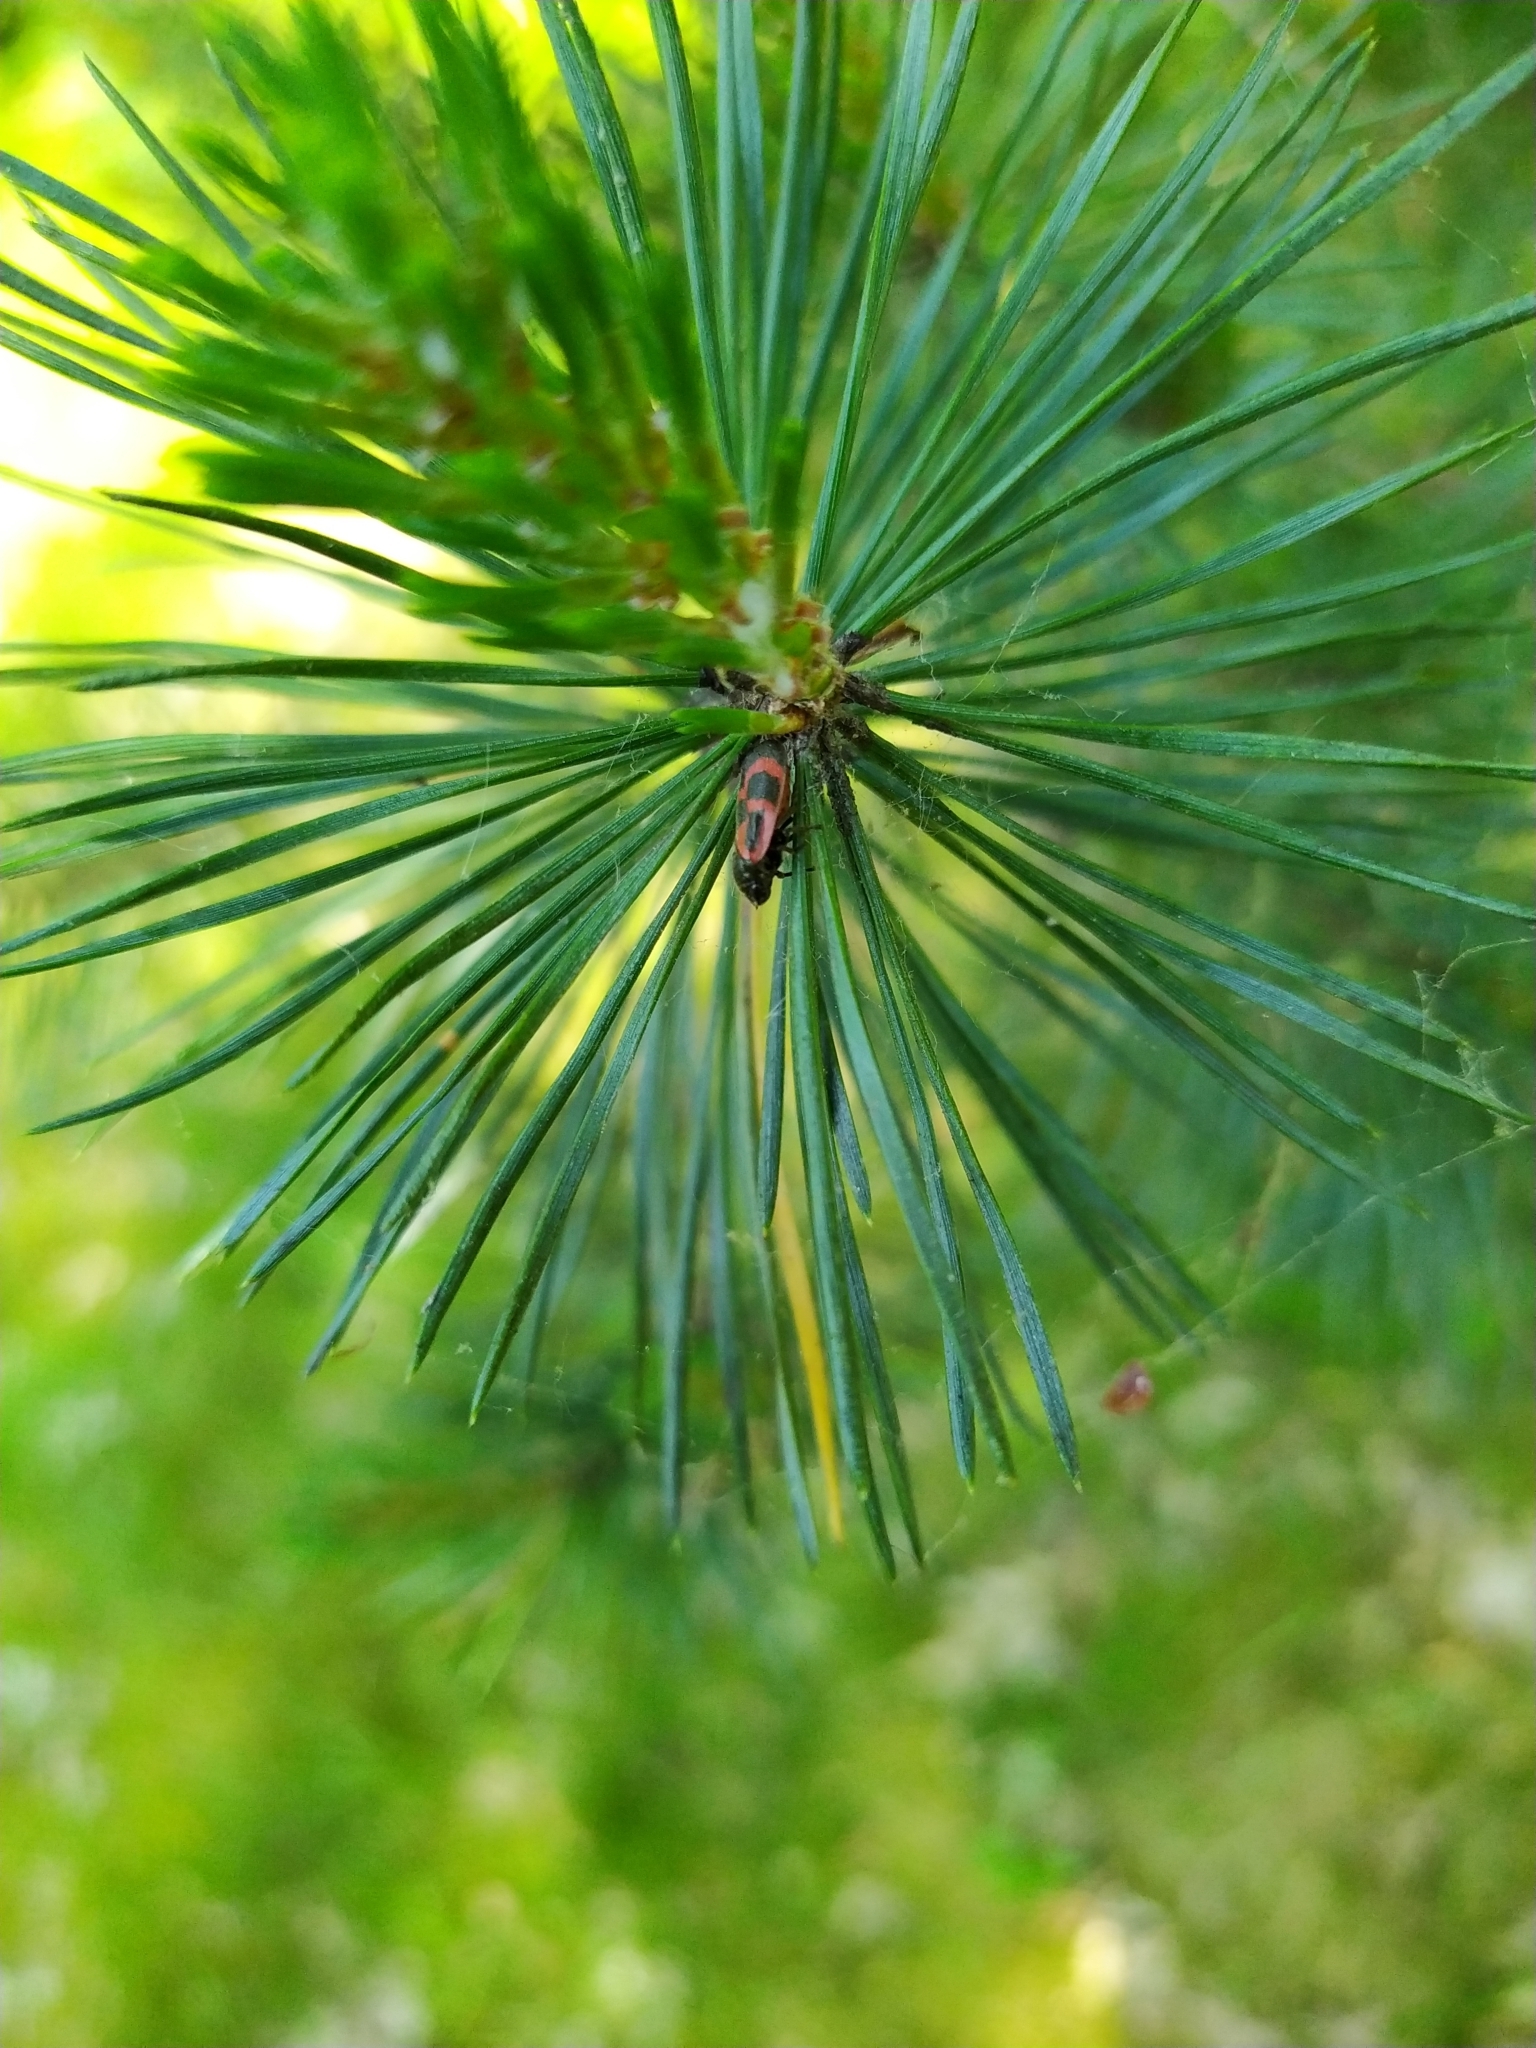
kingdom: Animalia
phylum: Arthropoda
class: Insecta
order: Hemiptera
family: Cercopidae
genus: Haematoloma
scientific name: Haematoloma dorsata
